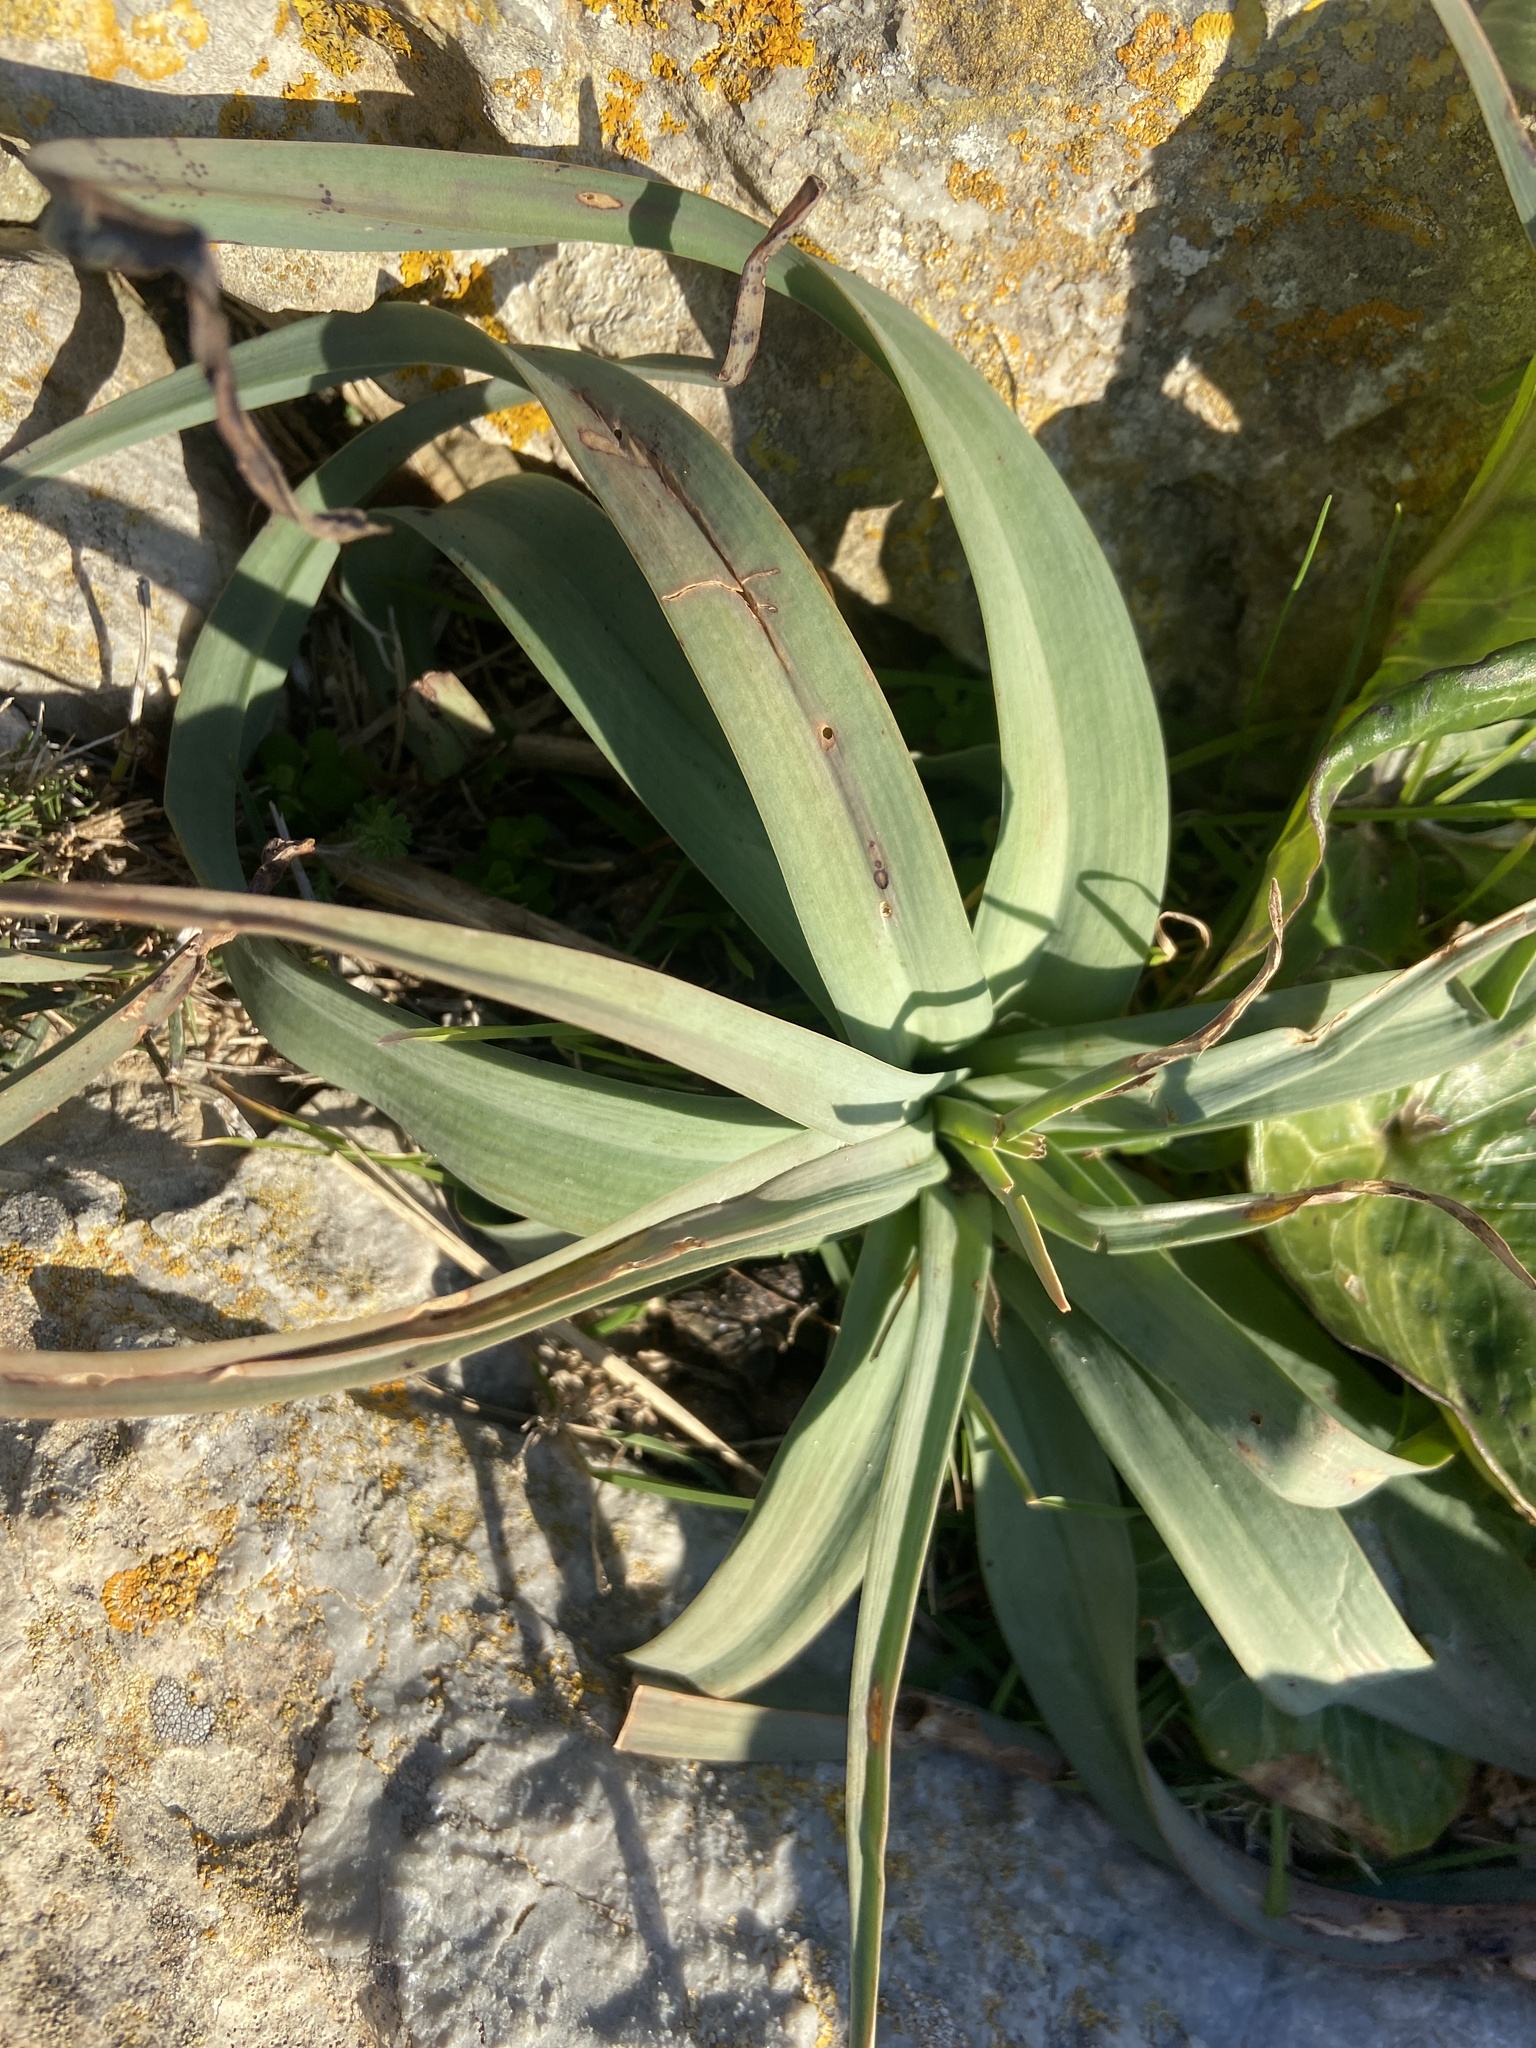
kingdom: Plantae
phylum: Tracheophyta
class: Liliopsida
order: Asparagales
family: Asphodelaceae
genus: Asphodelus
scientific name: Asphodelus ramosus
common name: Silverrod
